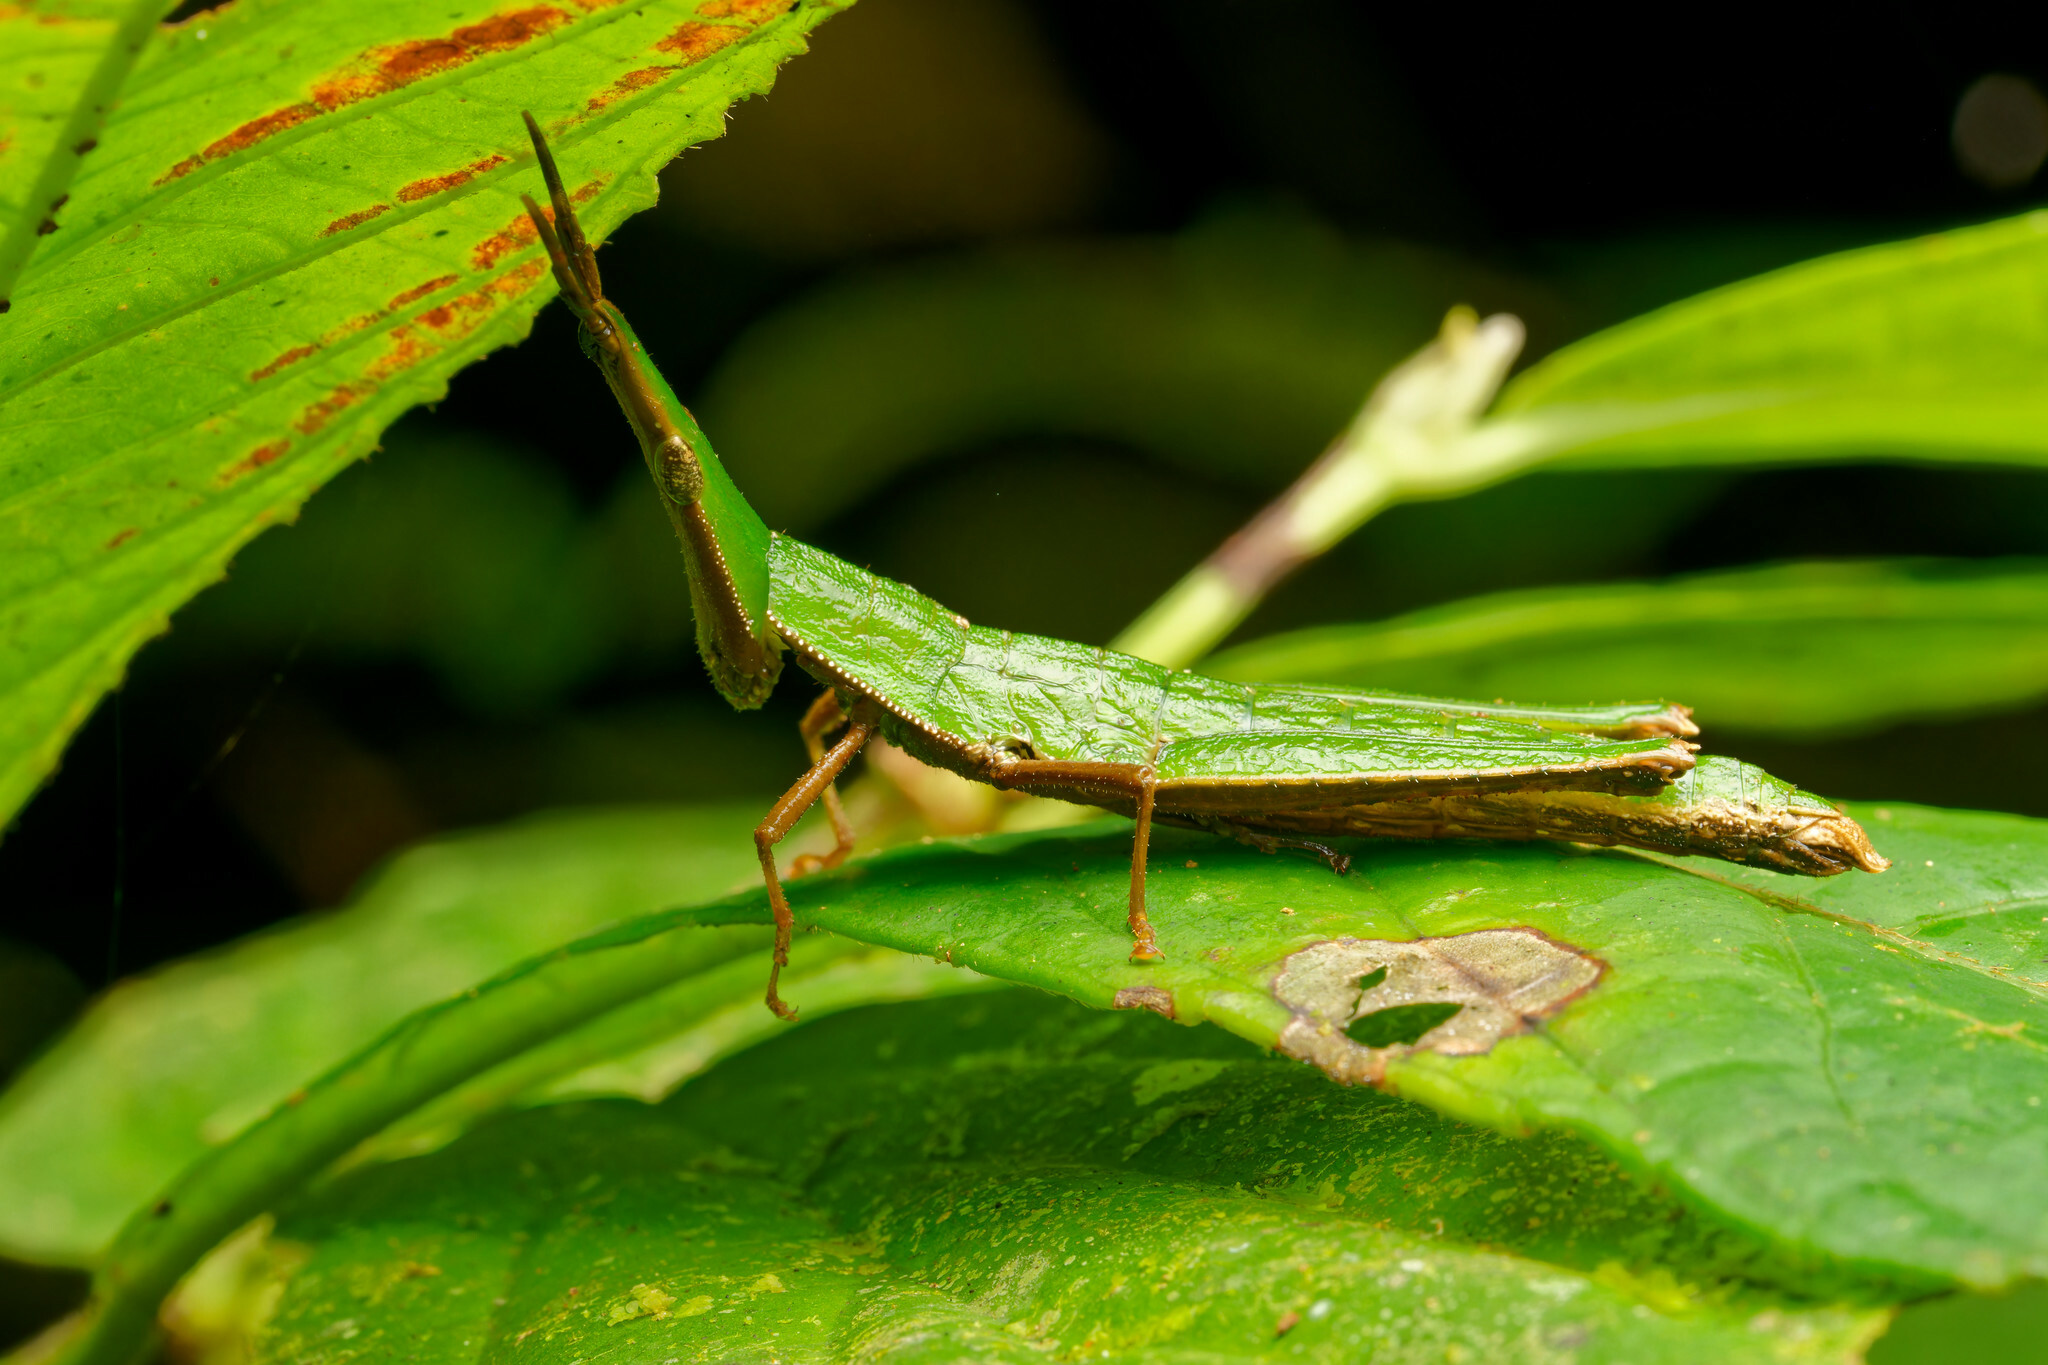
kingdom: Animalia
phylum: Arthropoda
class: Insecta
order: Orthoptera
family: Pyrgomorphidae
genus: Omura
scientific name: Omura congrua
